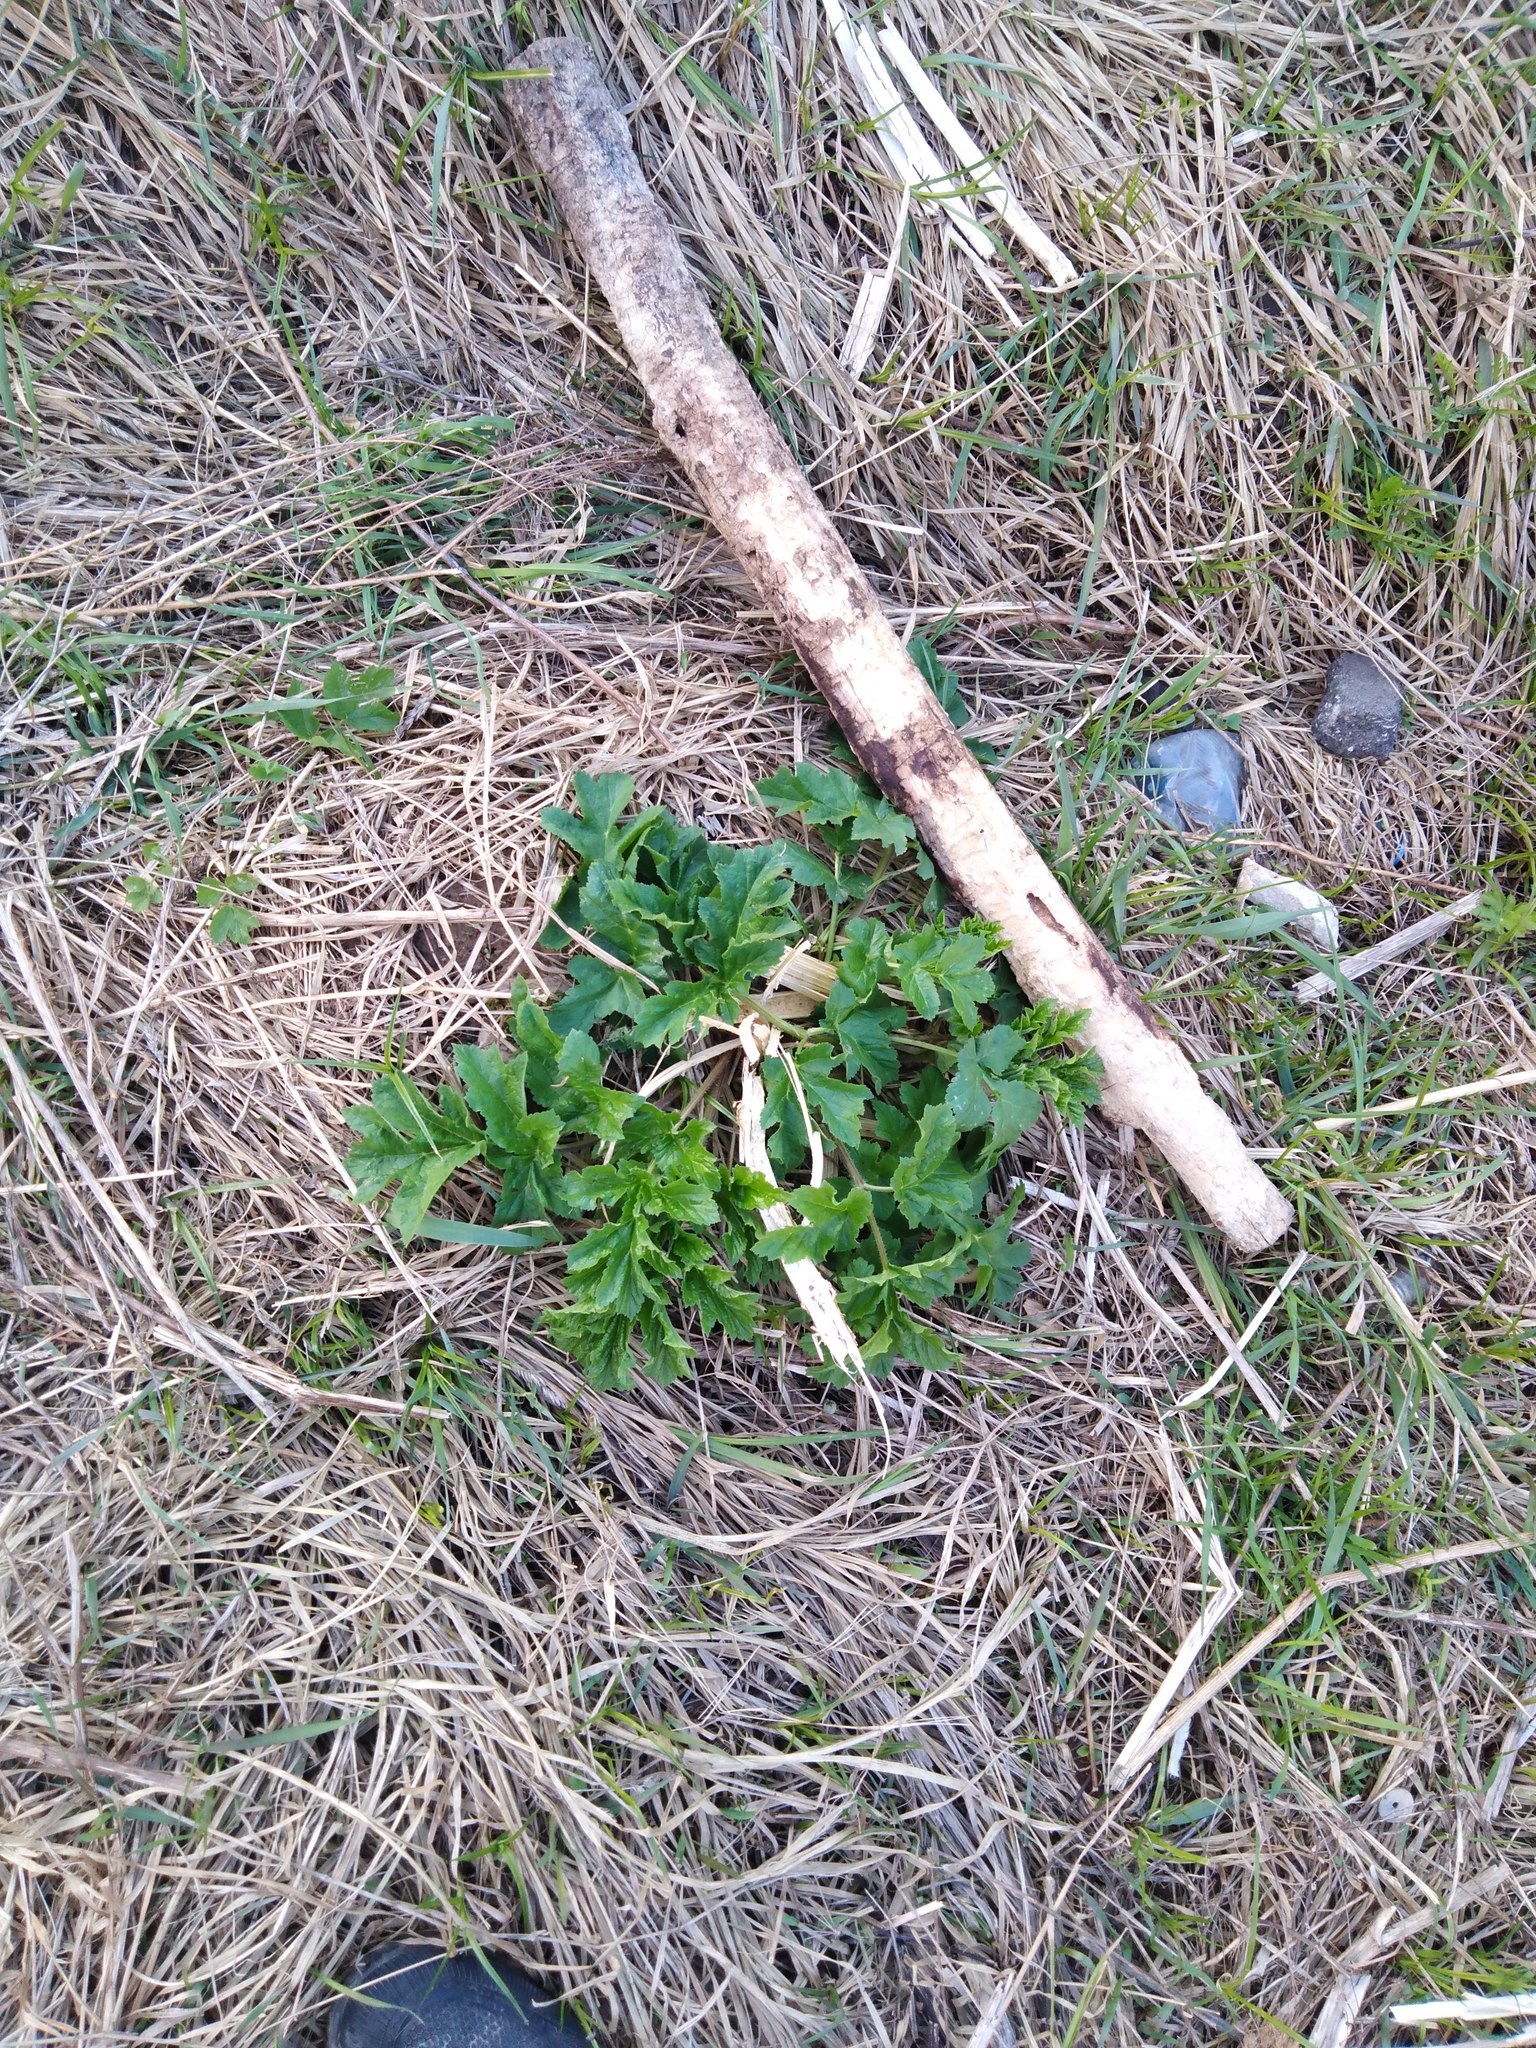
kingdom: Plantae
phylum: Tracheophyta
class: Magnoliopsida
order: Apiales
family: Apiaceae
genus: Heracleum
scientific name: Heracleum sphondylium
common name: Hogweed
